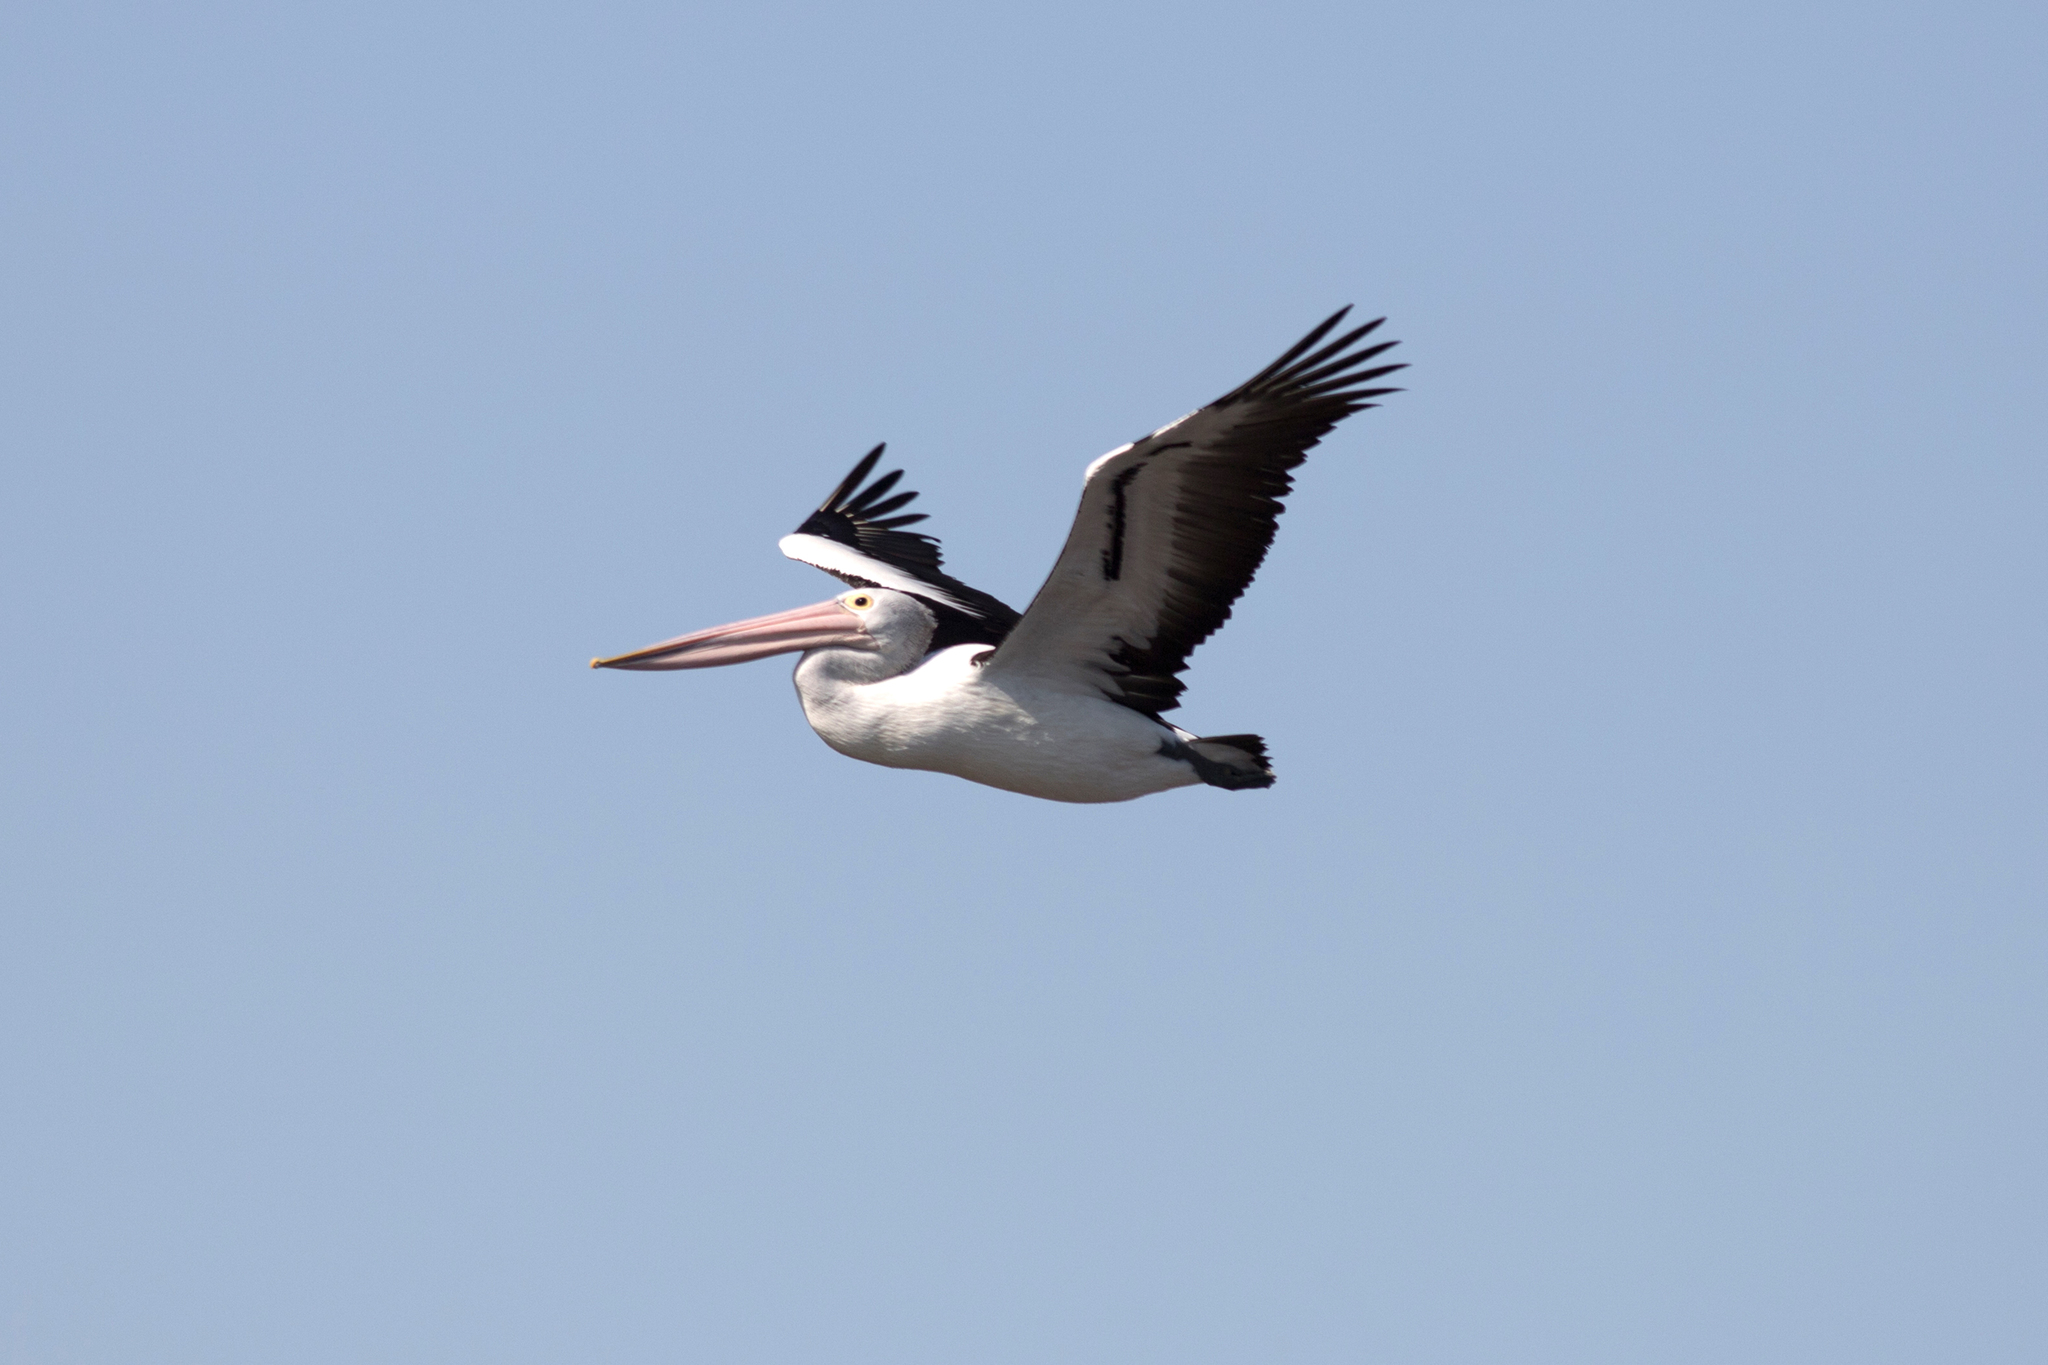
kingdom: Animalia
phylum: Chordata
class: Aves
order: Pelecaniformes
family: Pelecanidae
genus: Pelecanus
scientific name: Pelecanus conspicillatus
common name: Australian pelican
